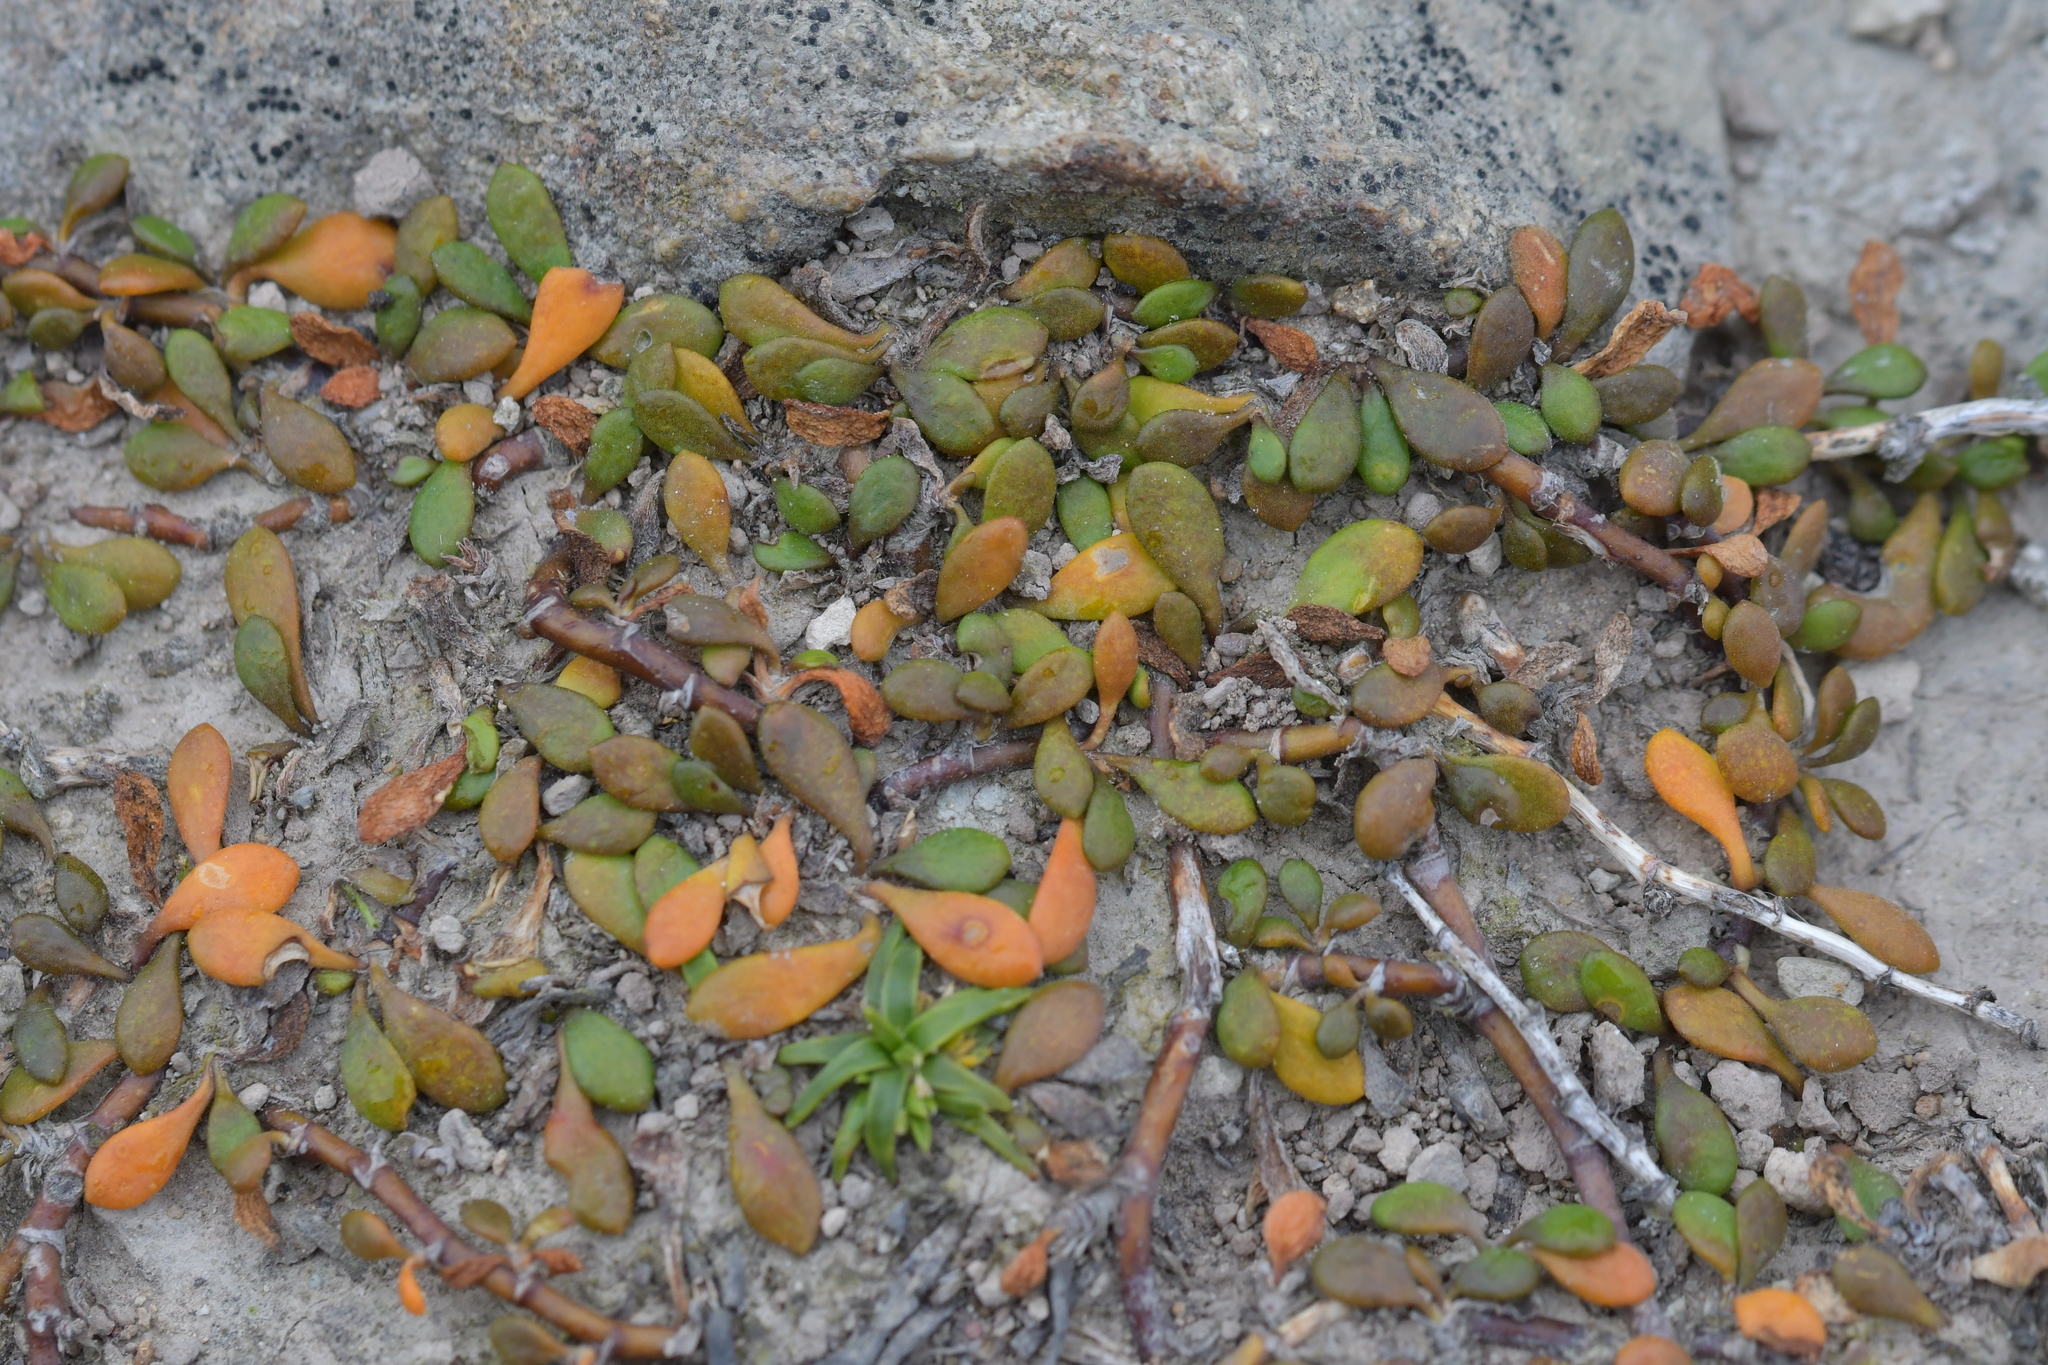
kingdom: Plantae
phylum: Tracheophyta
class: Magnoliopsida
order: Asterales
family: Goodeniaceae
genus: Goodenia
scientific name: Goodenia radicans
